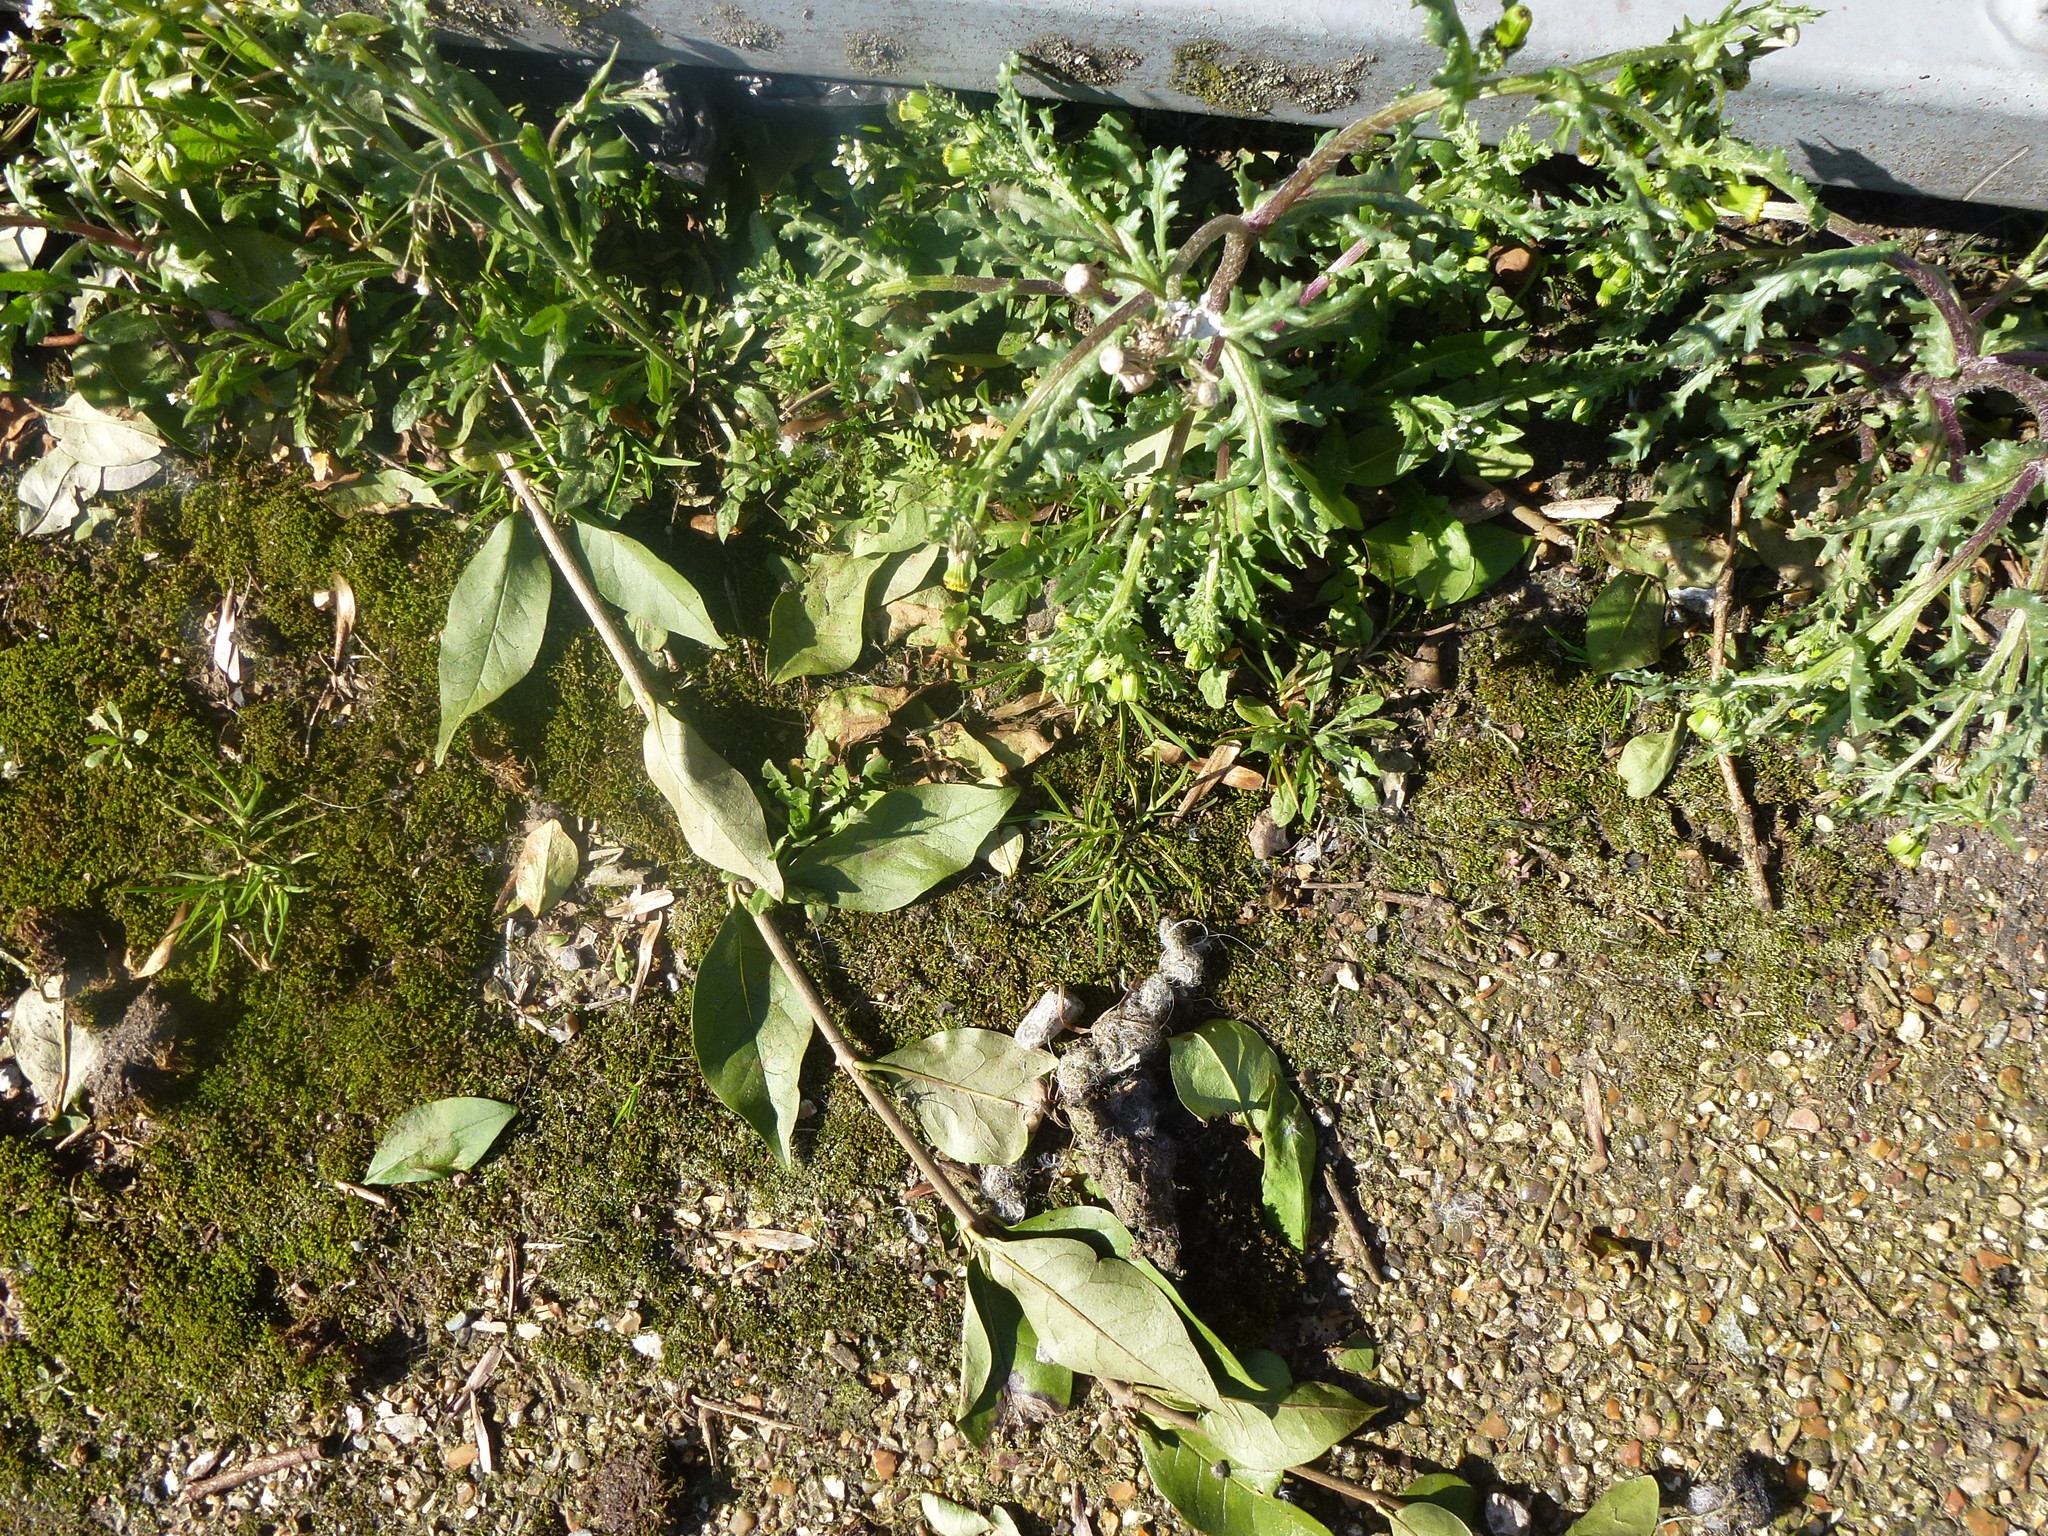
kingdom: Plantae
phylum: Tracheophyta
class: Magnoliopsida
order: Asterales
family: Asteraceae
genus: Senecio
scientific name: Senecio vulgaris
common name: Old-man-in-the-spring
